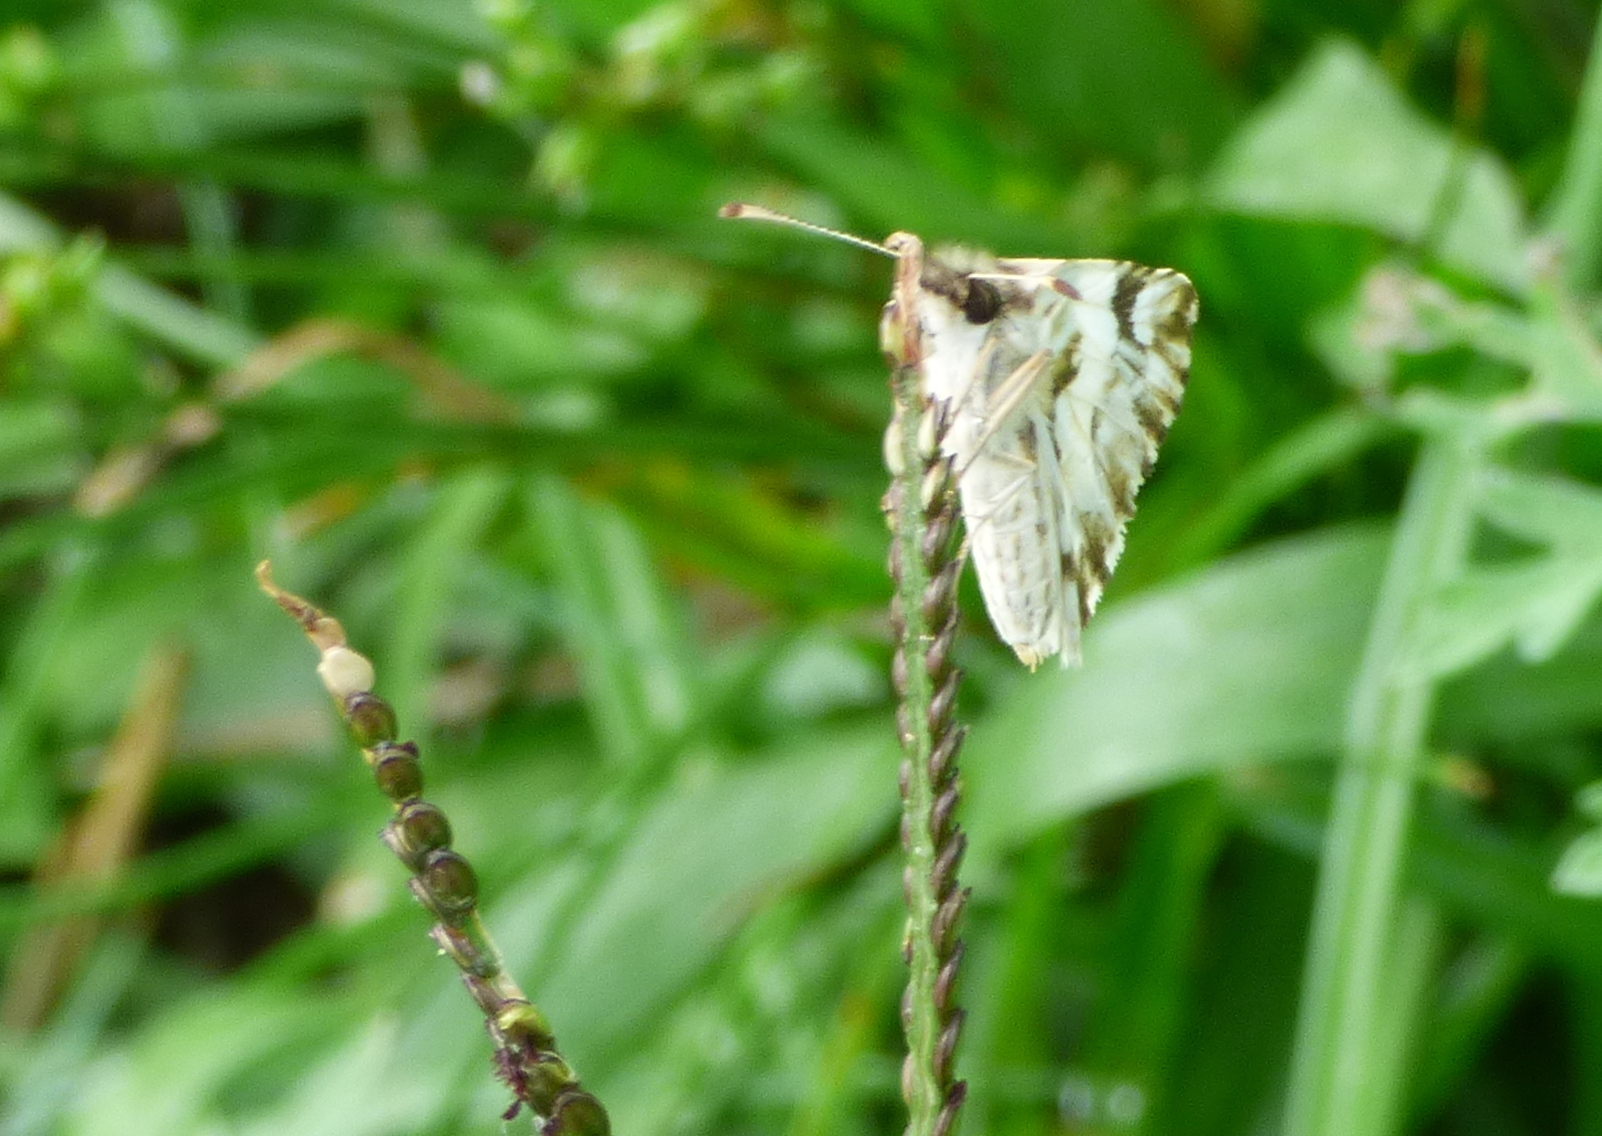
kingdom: Animalia
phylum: Arthropoda
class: Insecta
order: Lepidoptera
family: Hesperiidae
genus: Heliopetes
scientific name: Heliopetes omrina
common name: Stained white-skipper
